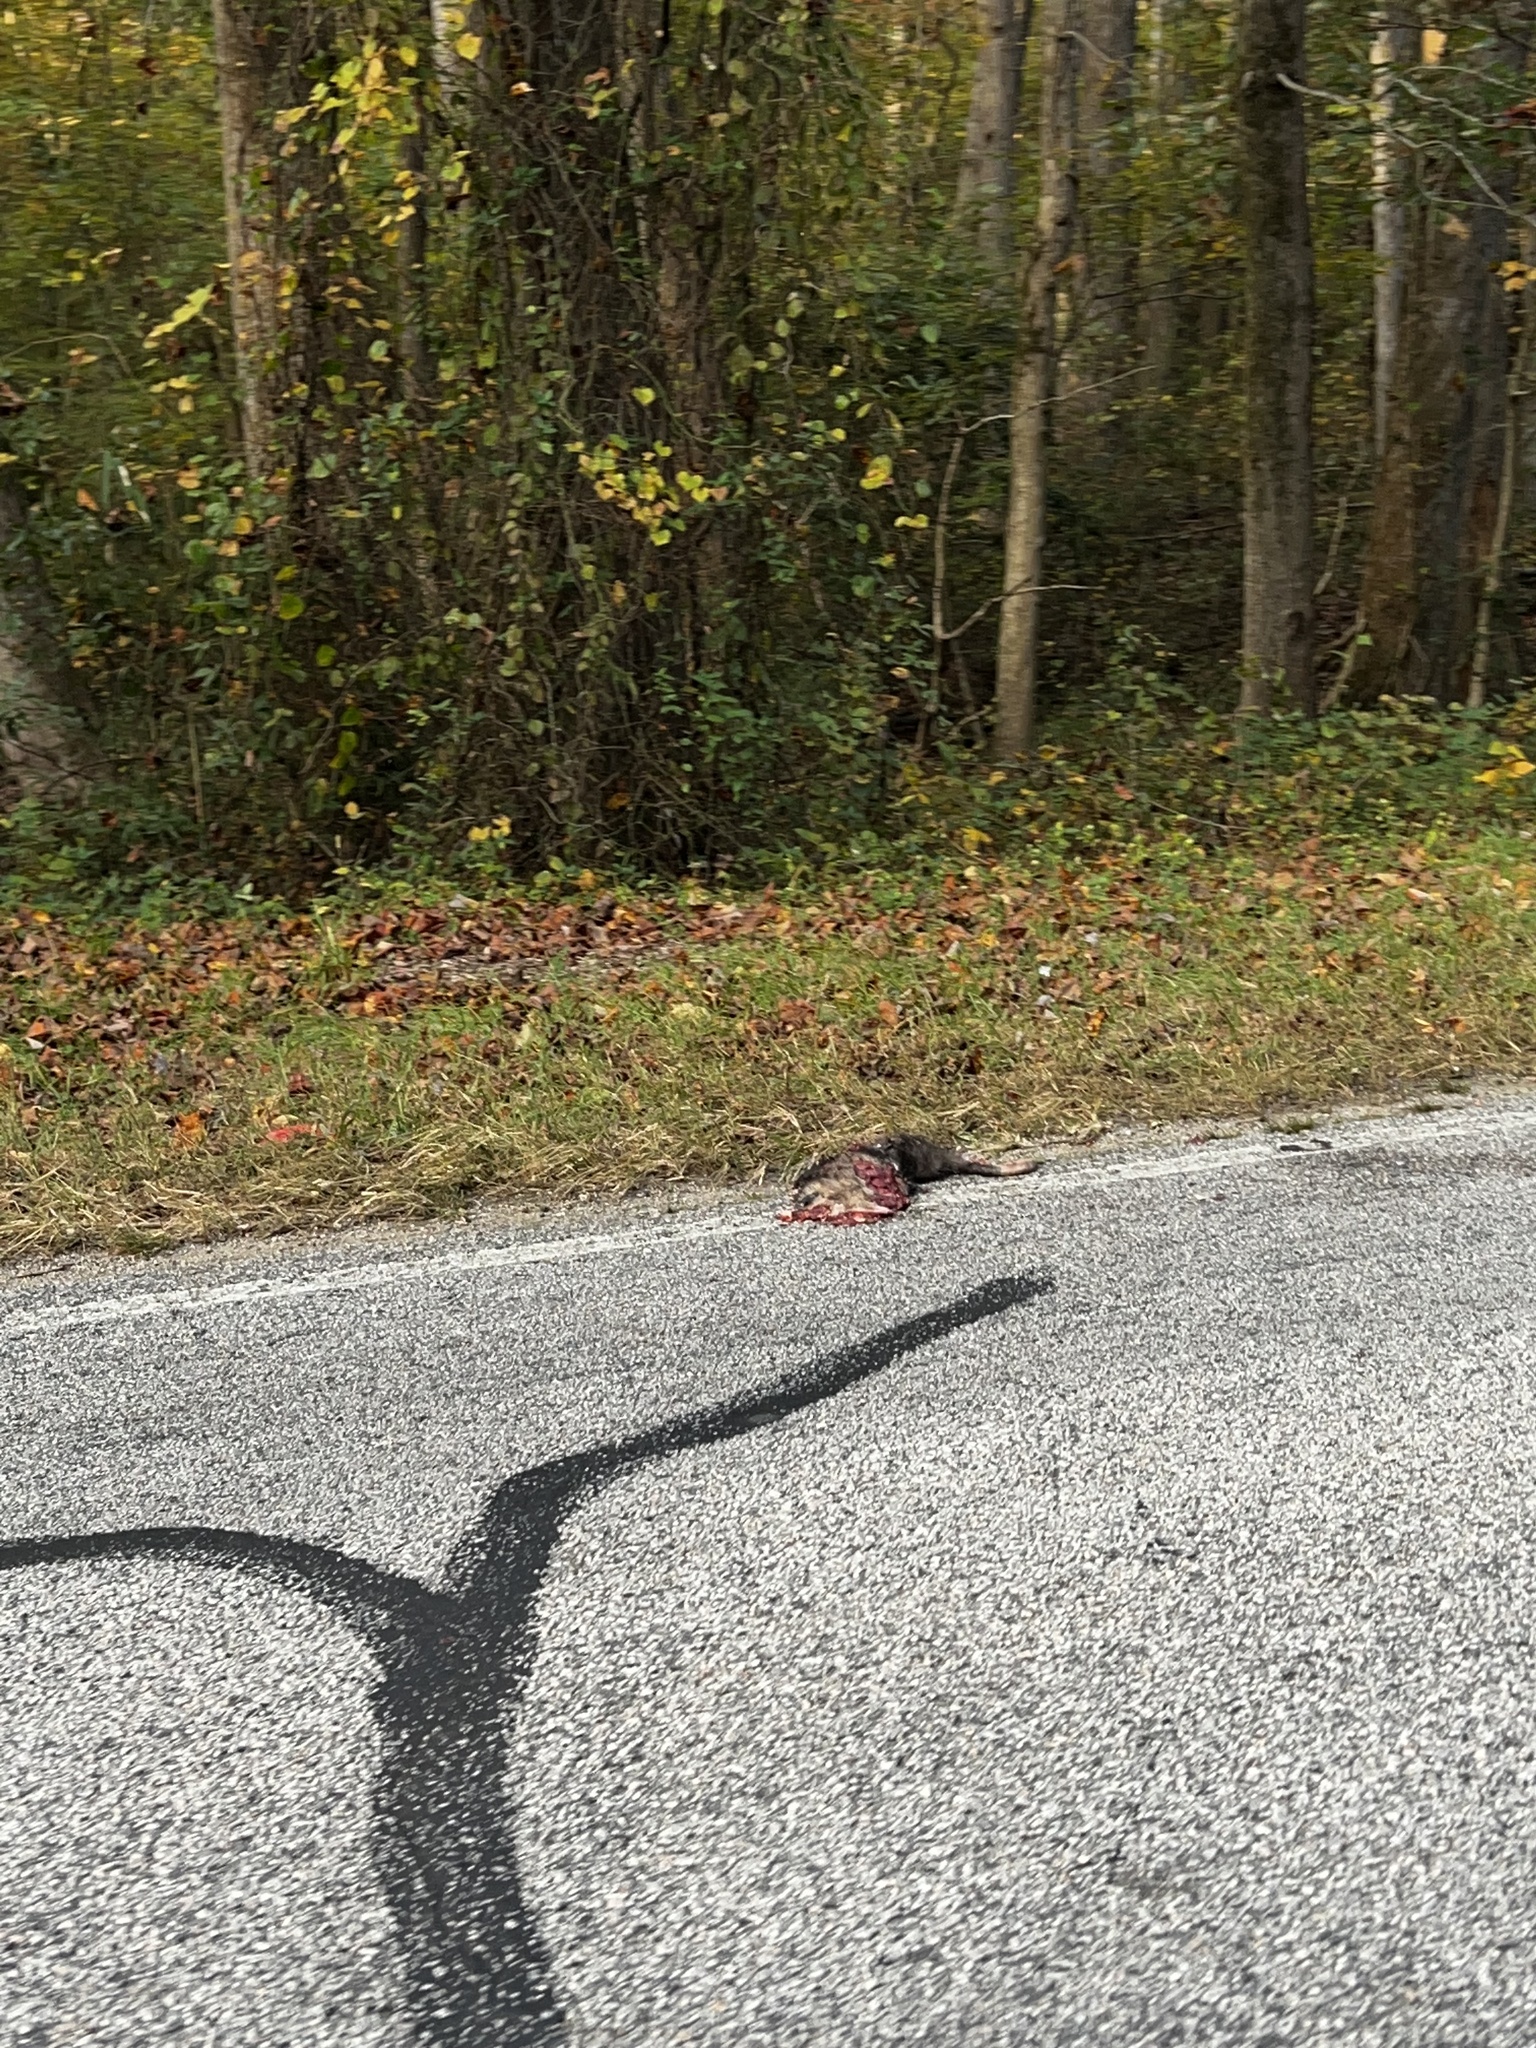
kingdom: Animalia
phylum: Chordata
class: Mammalia
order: Didelphimorphia
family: Didelphidae
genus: Didelphis
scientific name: Didelphis virginiana
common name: Virginia opossum
